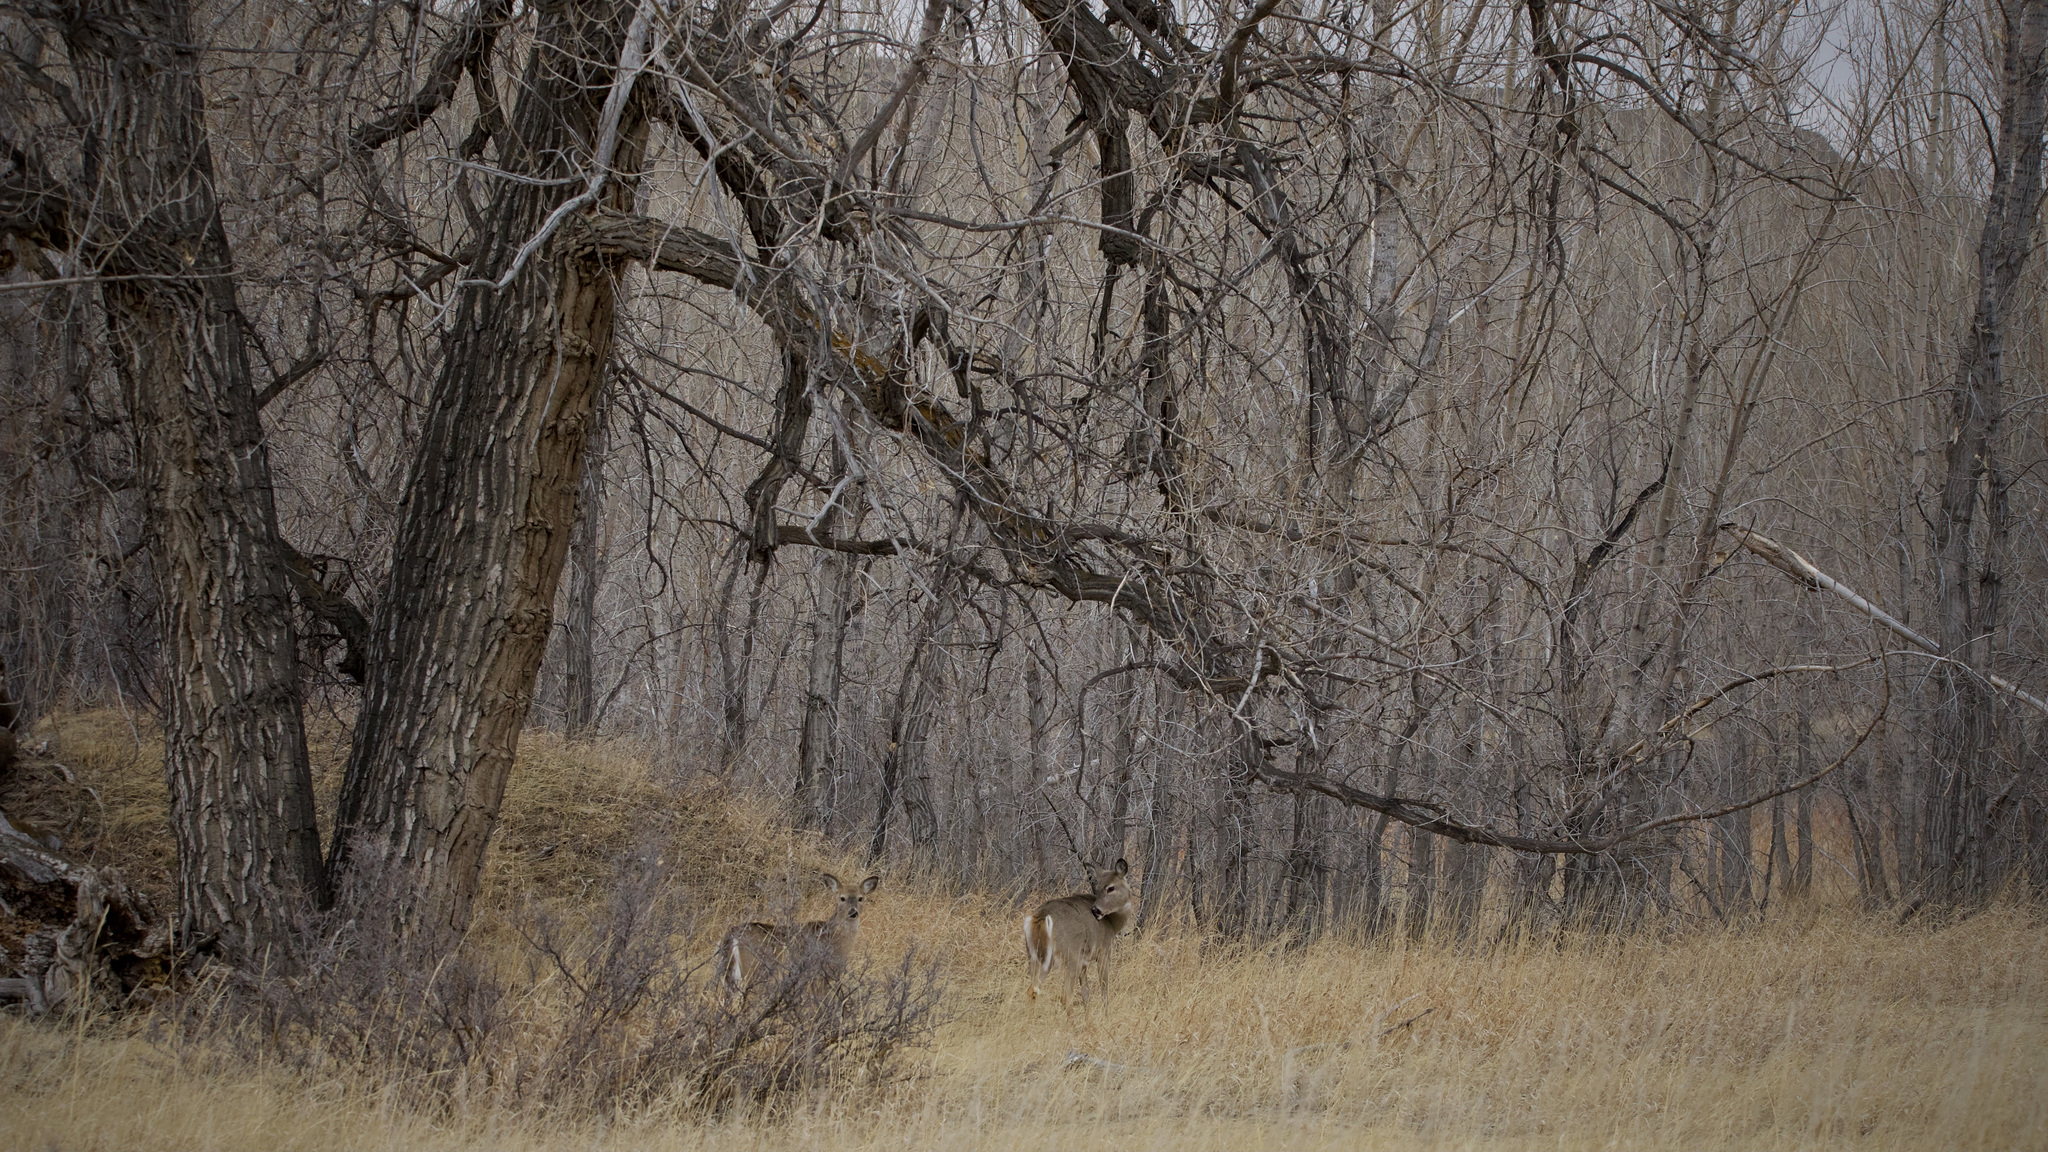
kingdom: Animalia
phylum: Chordata
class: Mammalia
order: Artiodactyla
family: Cervidae
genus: Odocoileus
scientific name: Odocoileus virginianus
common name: White-tailed deer
